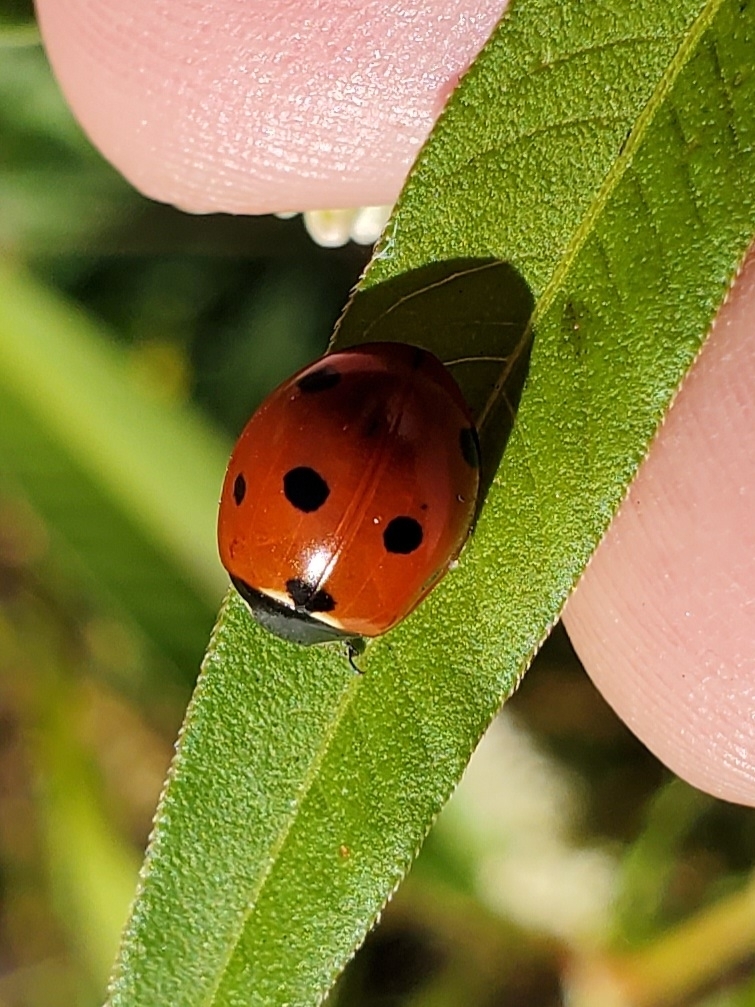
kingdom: Animalia
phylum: Arthropoda
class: Insecta
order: Coleoptera
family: Coccinellidae
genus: Coccinella
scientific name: Coccinella septempunctata
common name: Sevenspotted lady beetle
